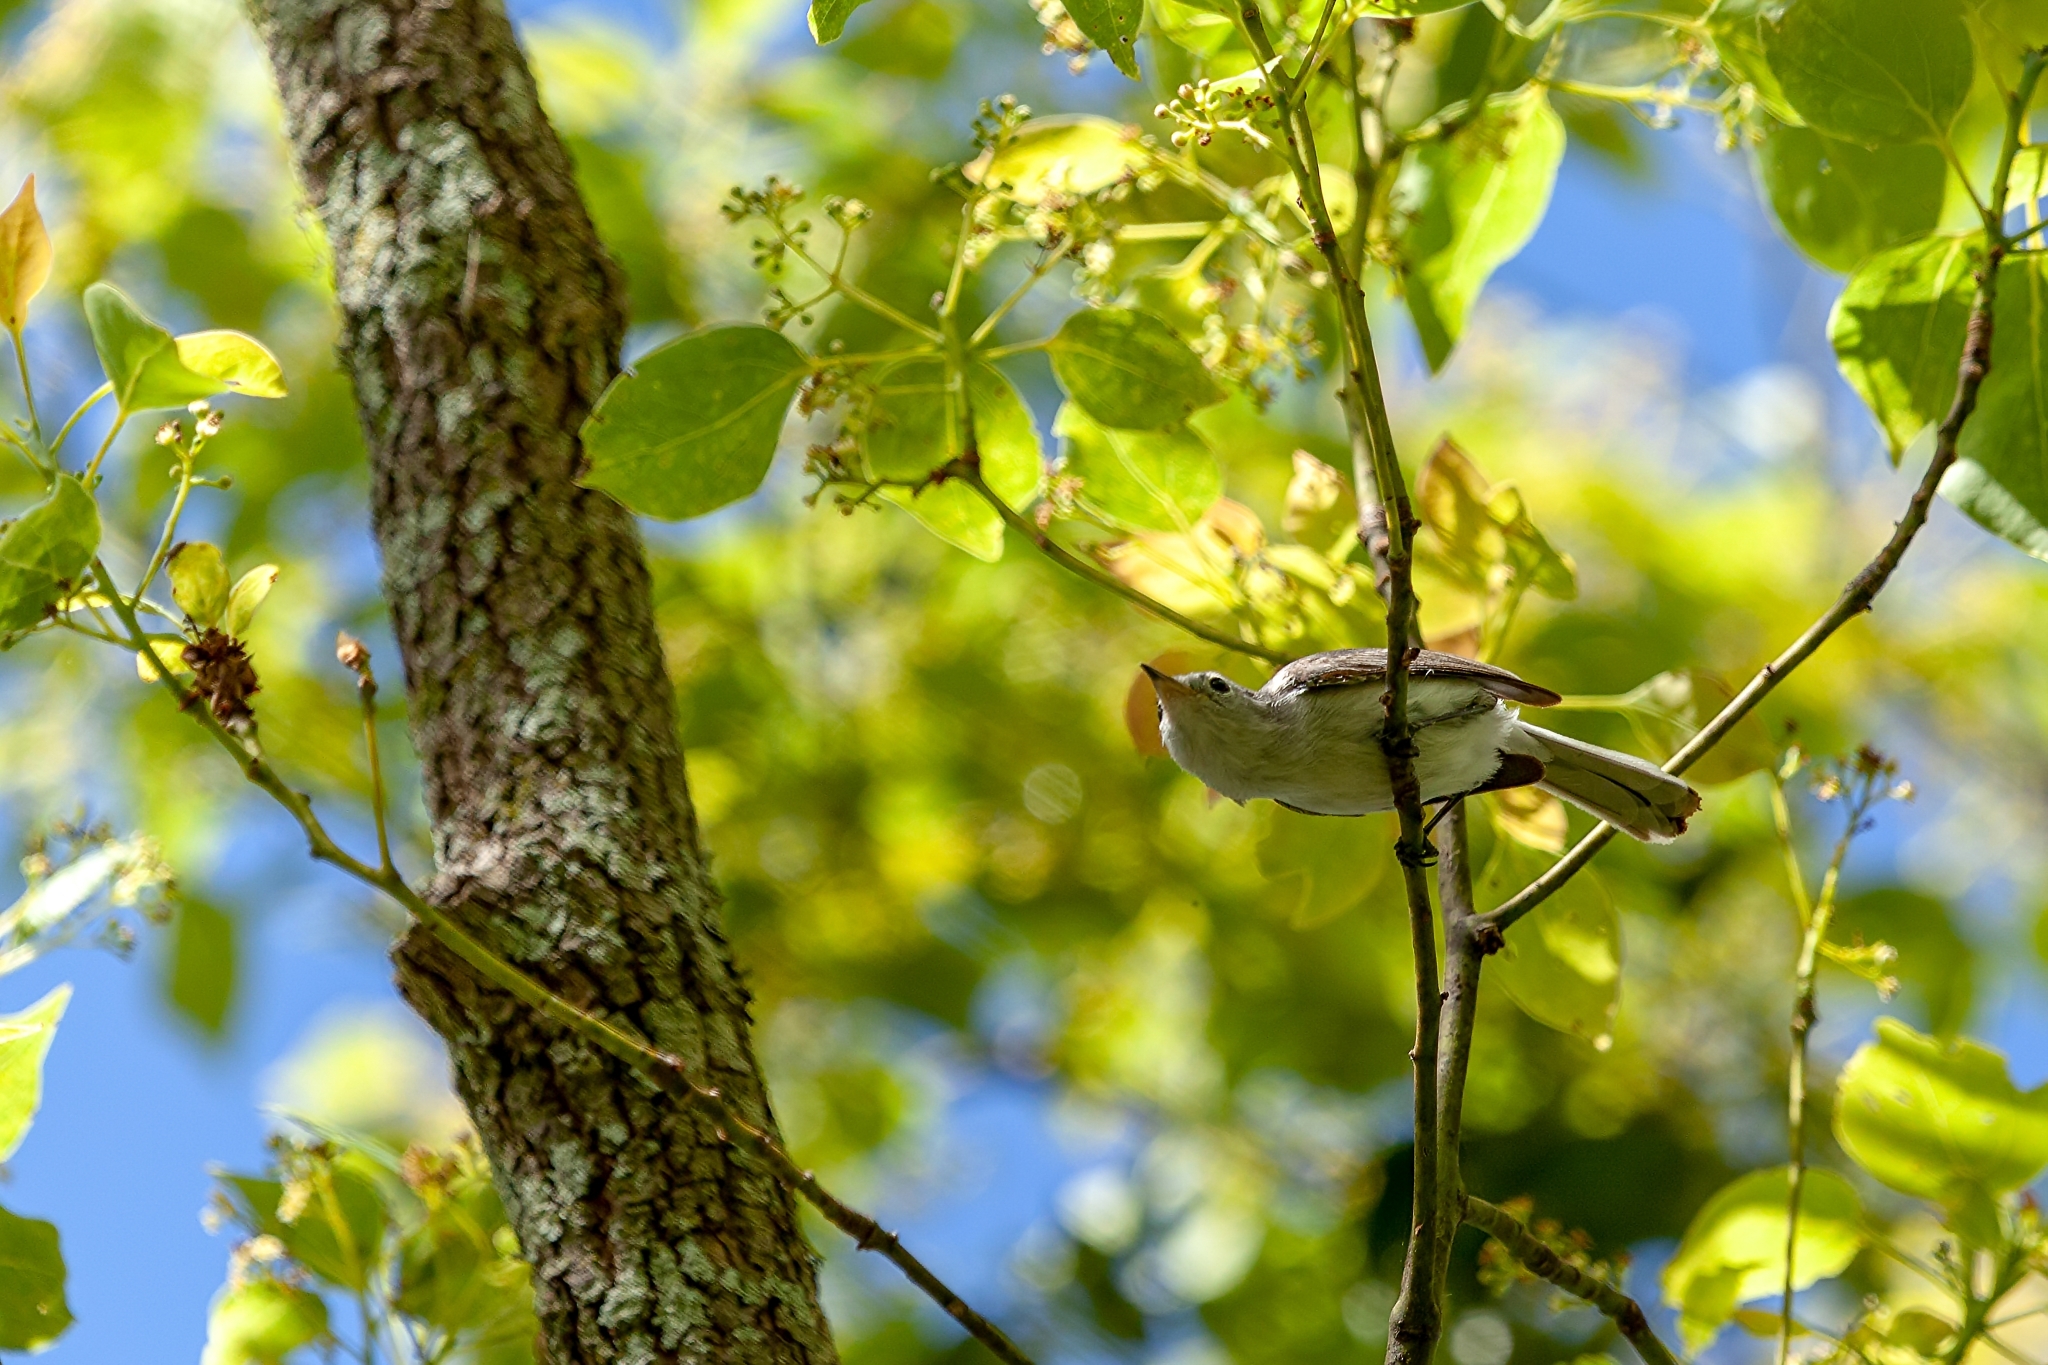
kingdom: Animalia
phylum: Chordata
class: Aves
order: Passeriformes
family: Polioptilidae
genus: Polioptila
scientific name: Polioptila caerulea
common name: Blue-gray gnatcatcher
